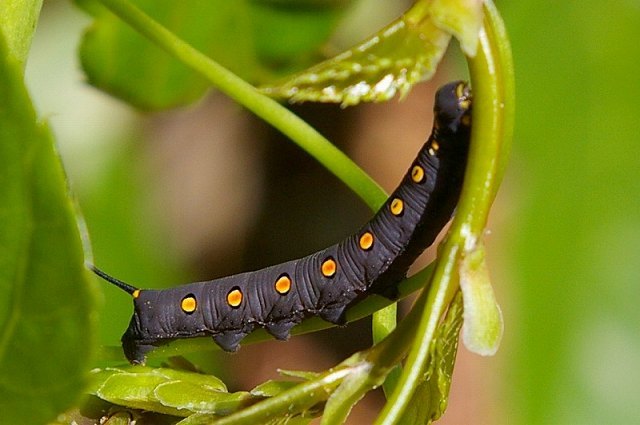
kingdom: Animalia
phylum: Arthropoda
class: Insecta
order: Lepidoptera
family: Sphingidae
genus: Theretra
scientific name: Theretra oldenlandiae
